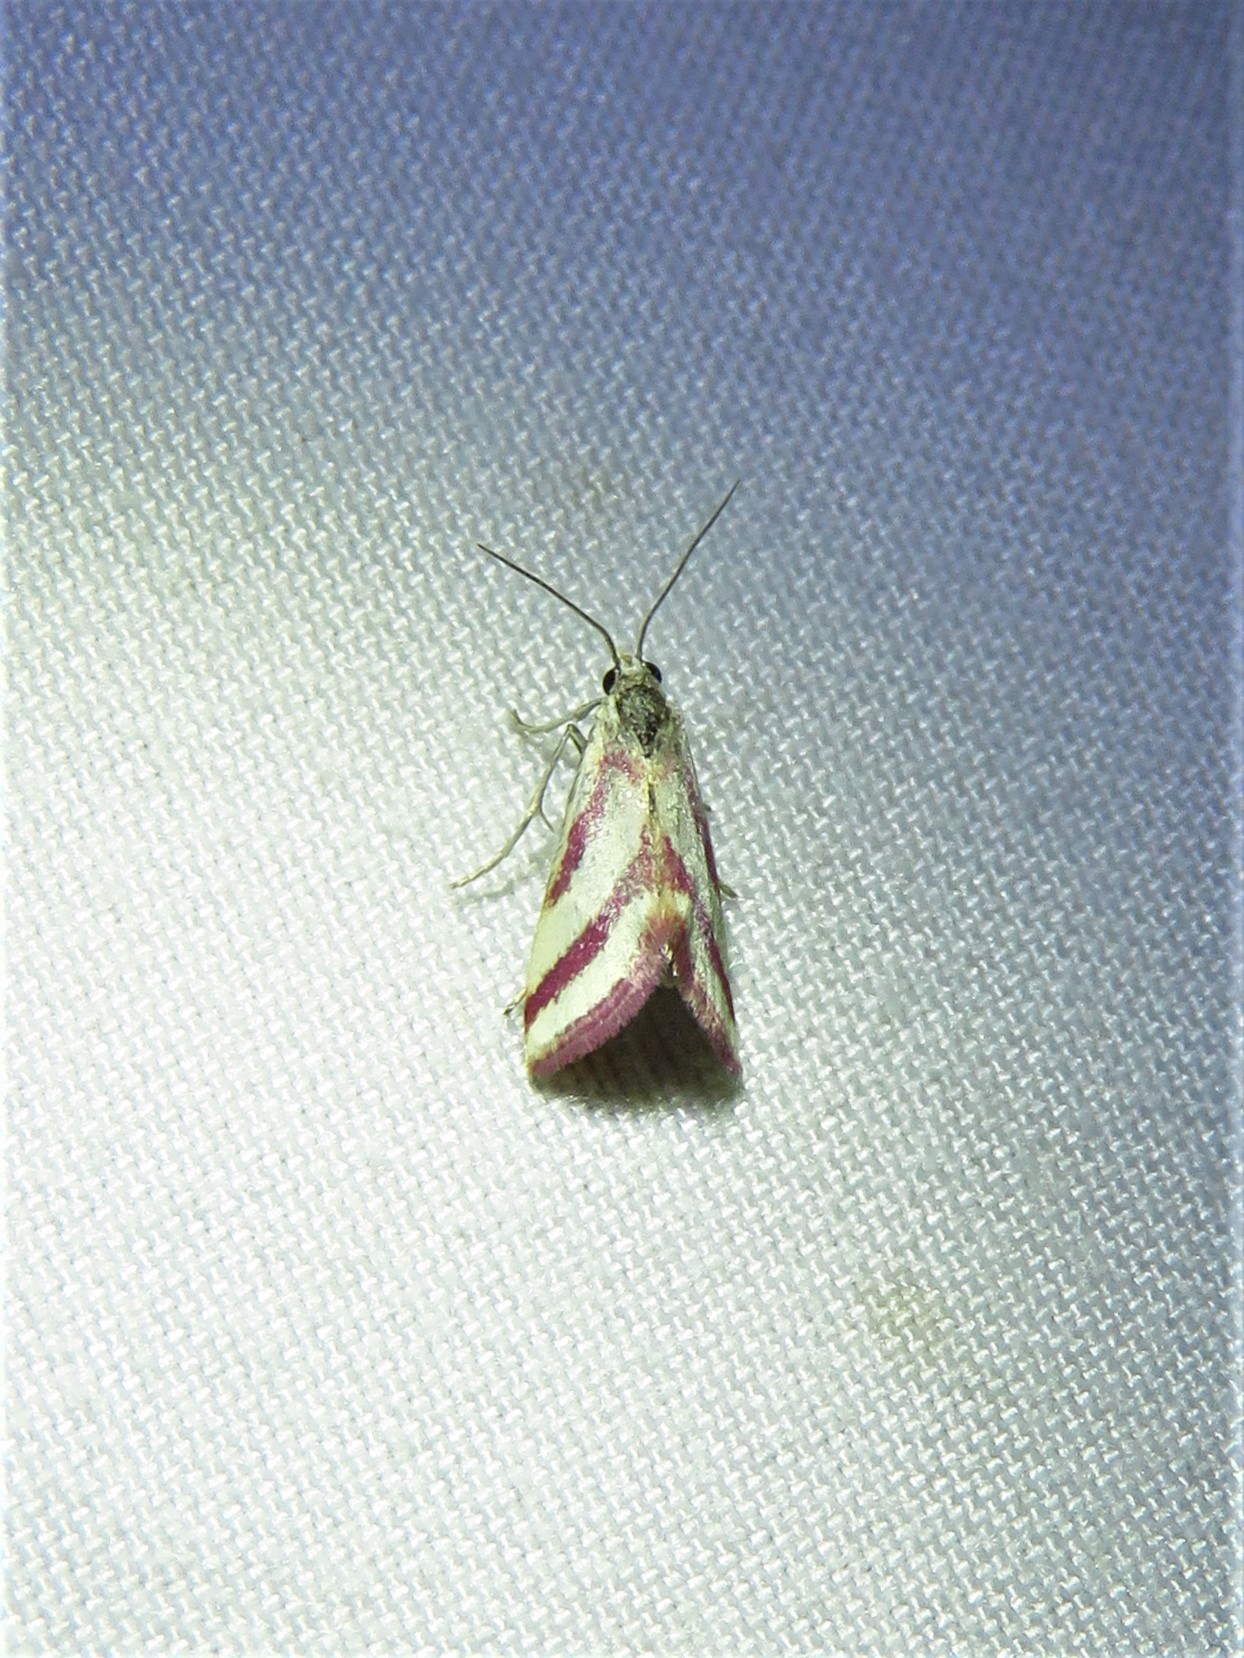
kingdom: Animalia
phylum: Arthropoda
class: Insecta
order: Lepidoptera
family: Crambidae
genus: Microtheoris
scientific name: Microtheoris vibicalis
